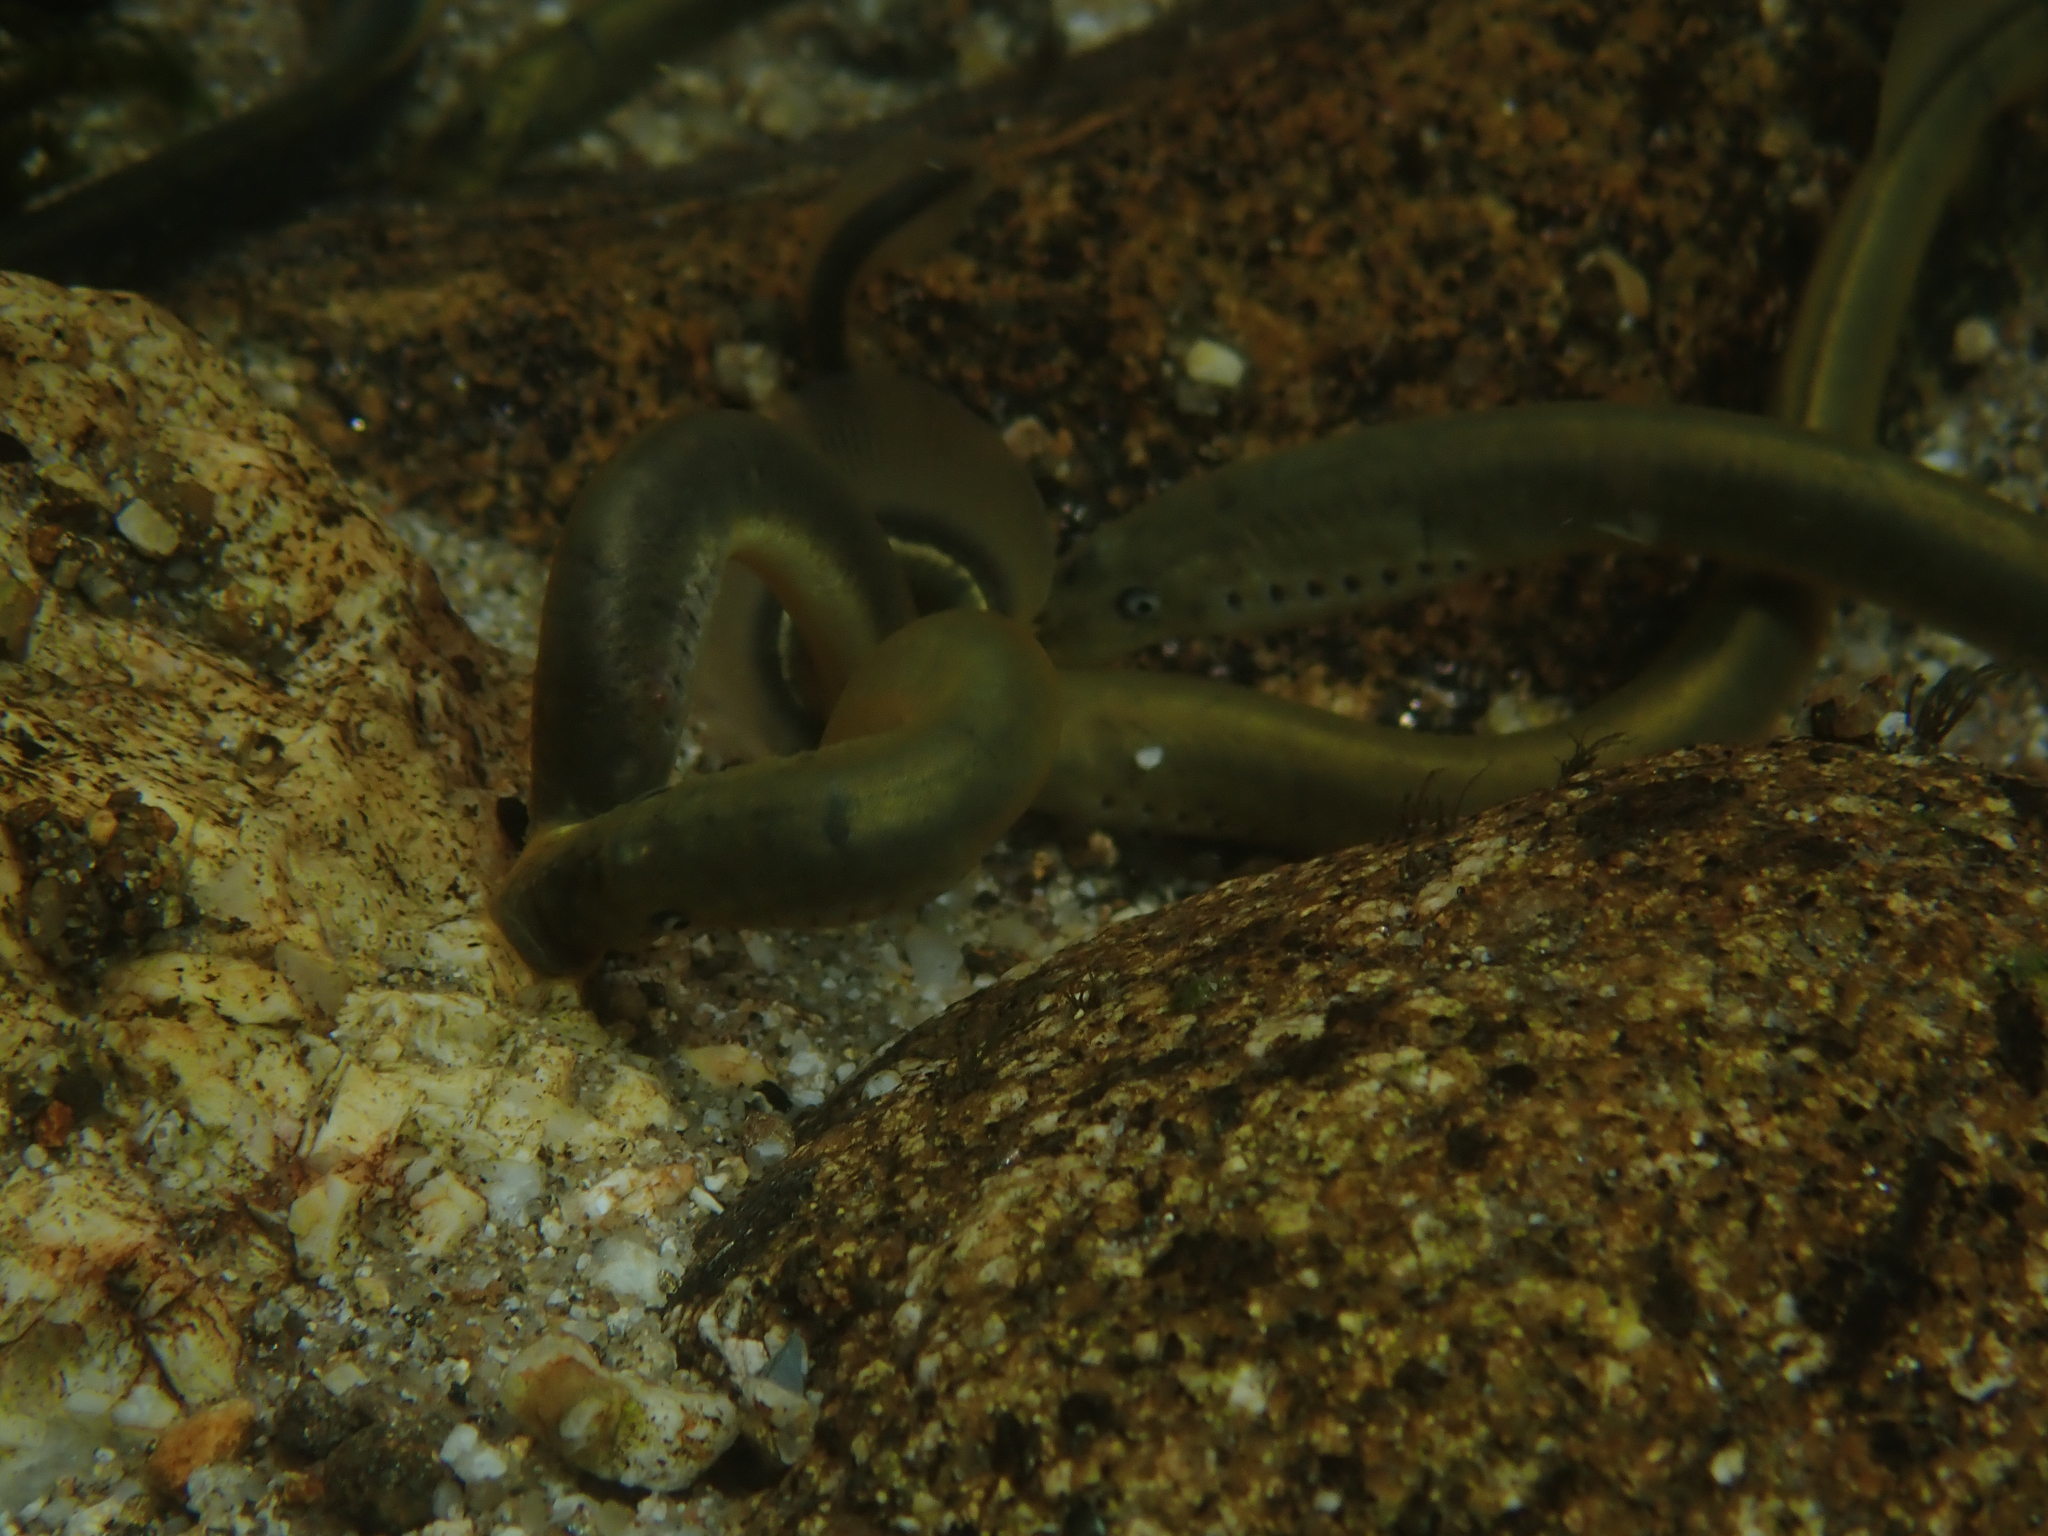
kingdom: Animalia
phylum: Chordata
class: Petromyzonti
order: Petromyzontiformes
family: Petromyzontidae
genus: Lampetra
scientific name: Lampetra planeri
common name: Brook lamprey
